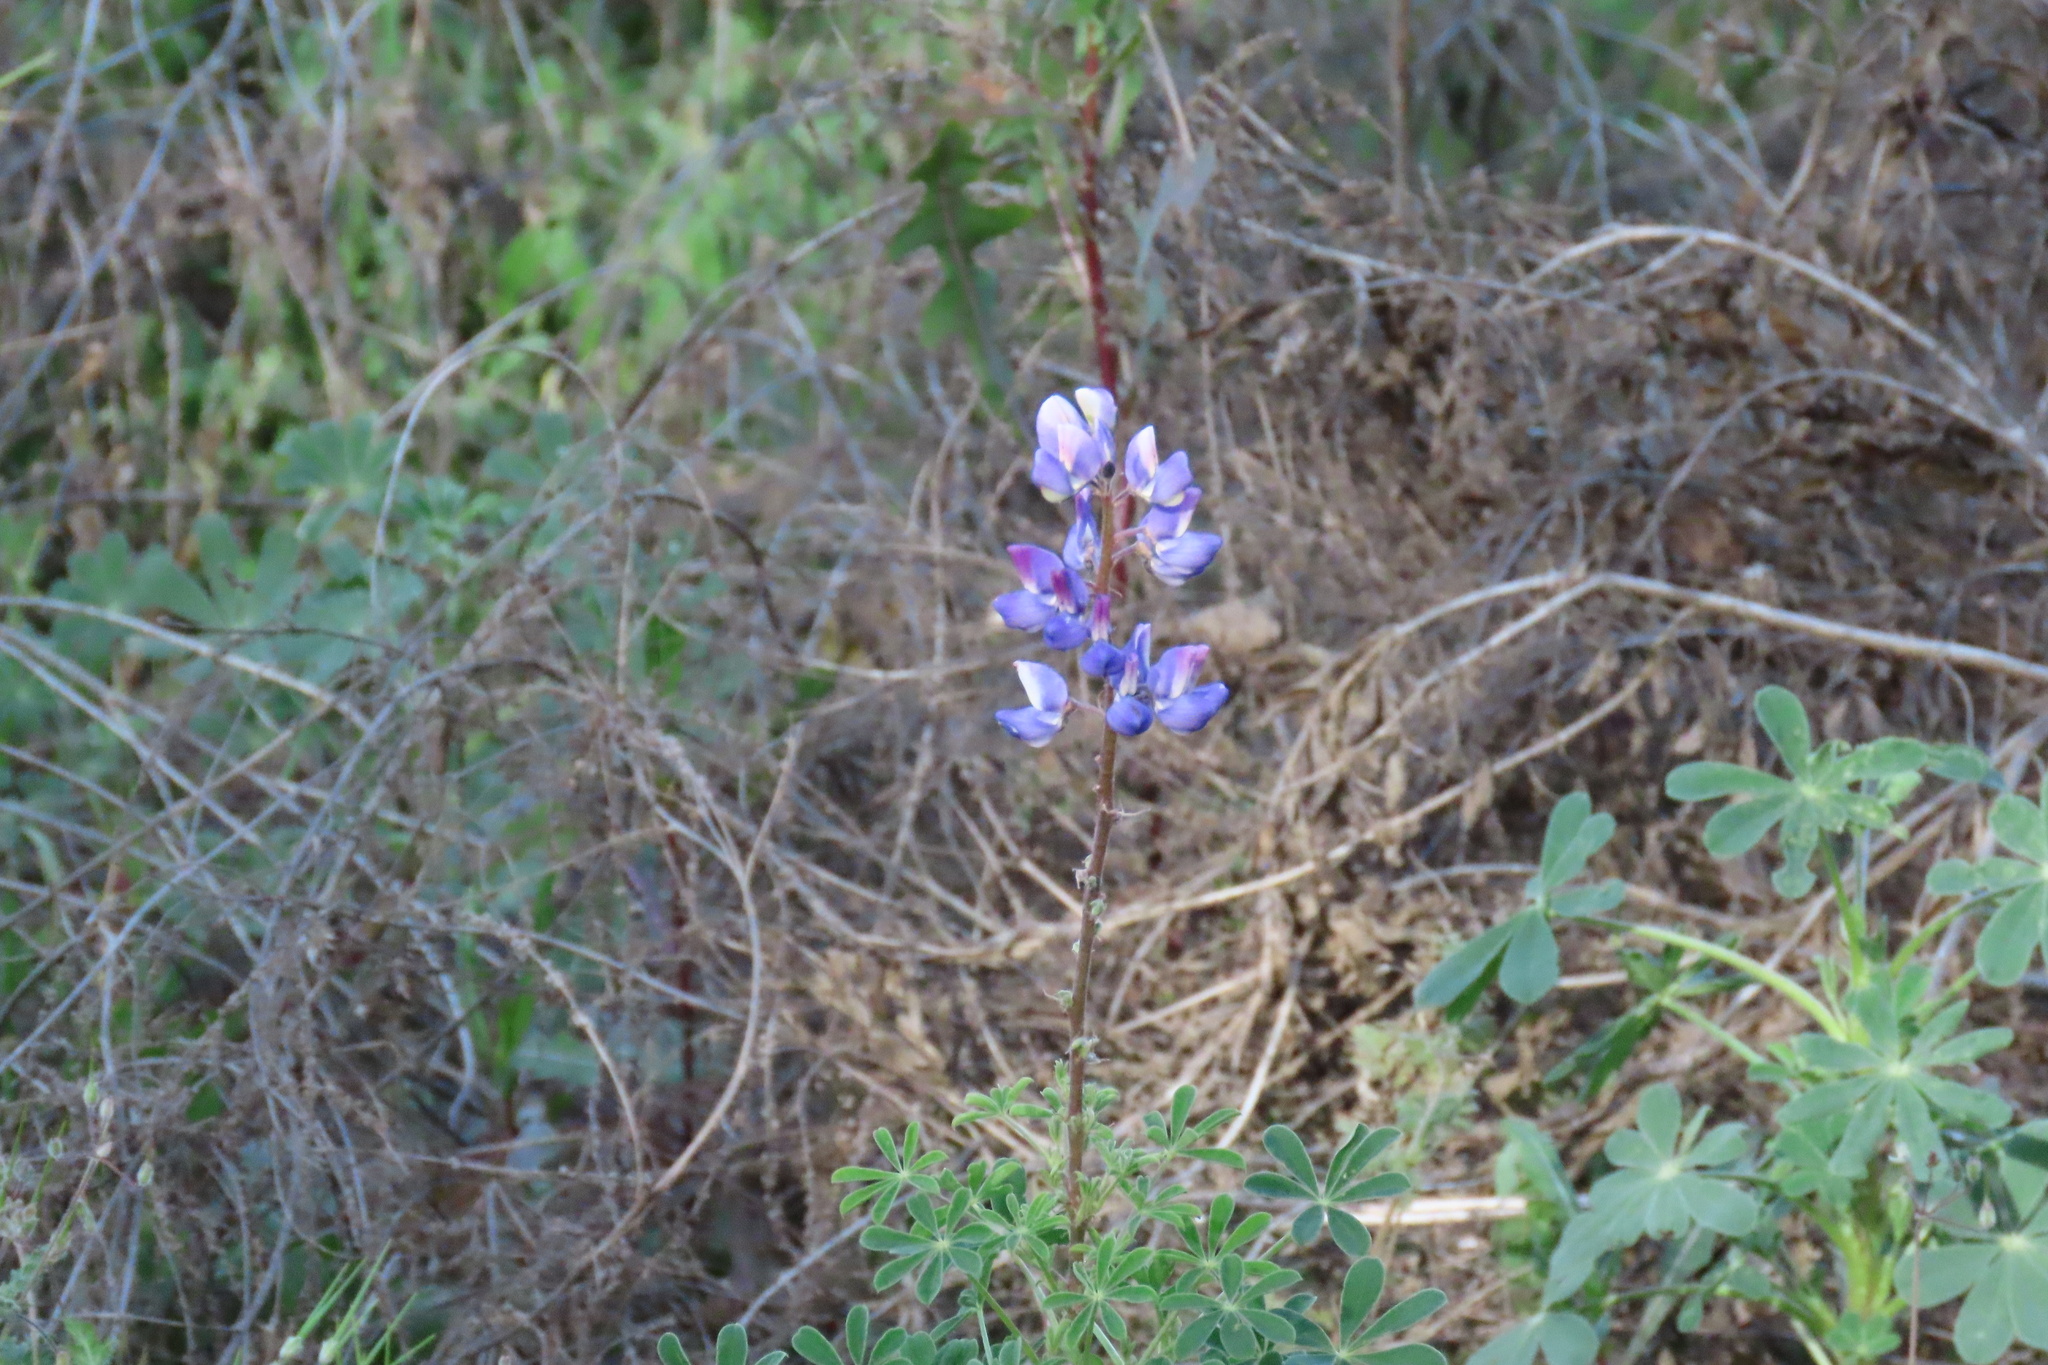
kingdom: Plantae
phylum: Tracheophyta
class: Magnoliopsida
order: Fabales
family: Fabaceae
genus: Lupinus
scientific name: Lupinus succulentus
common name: Arroyo lupine
